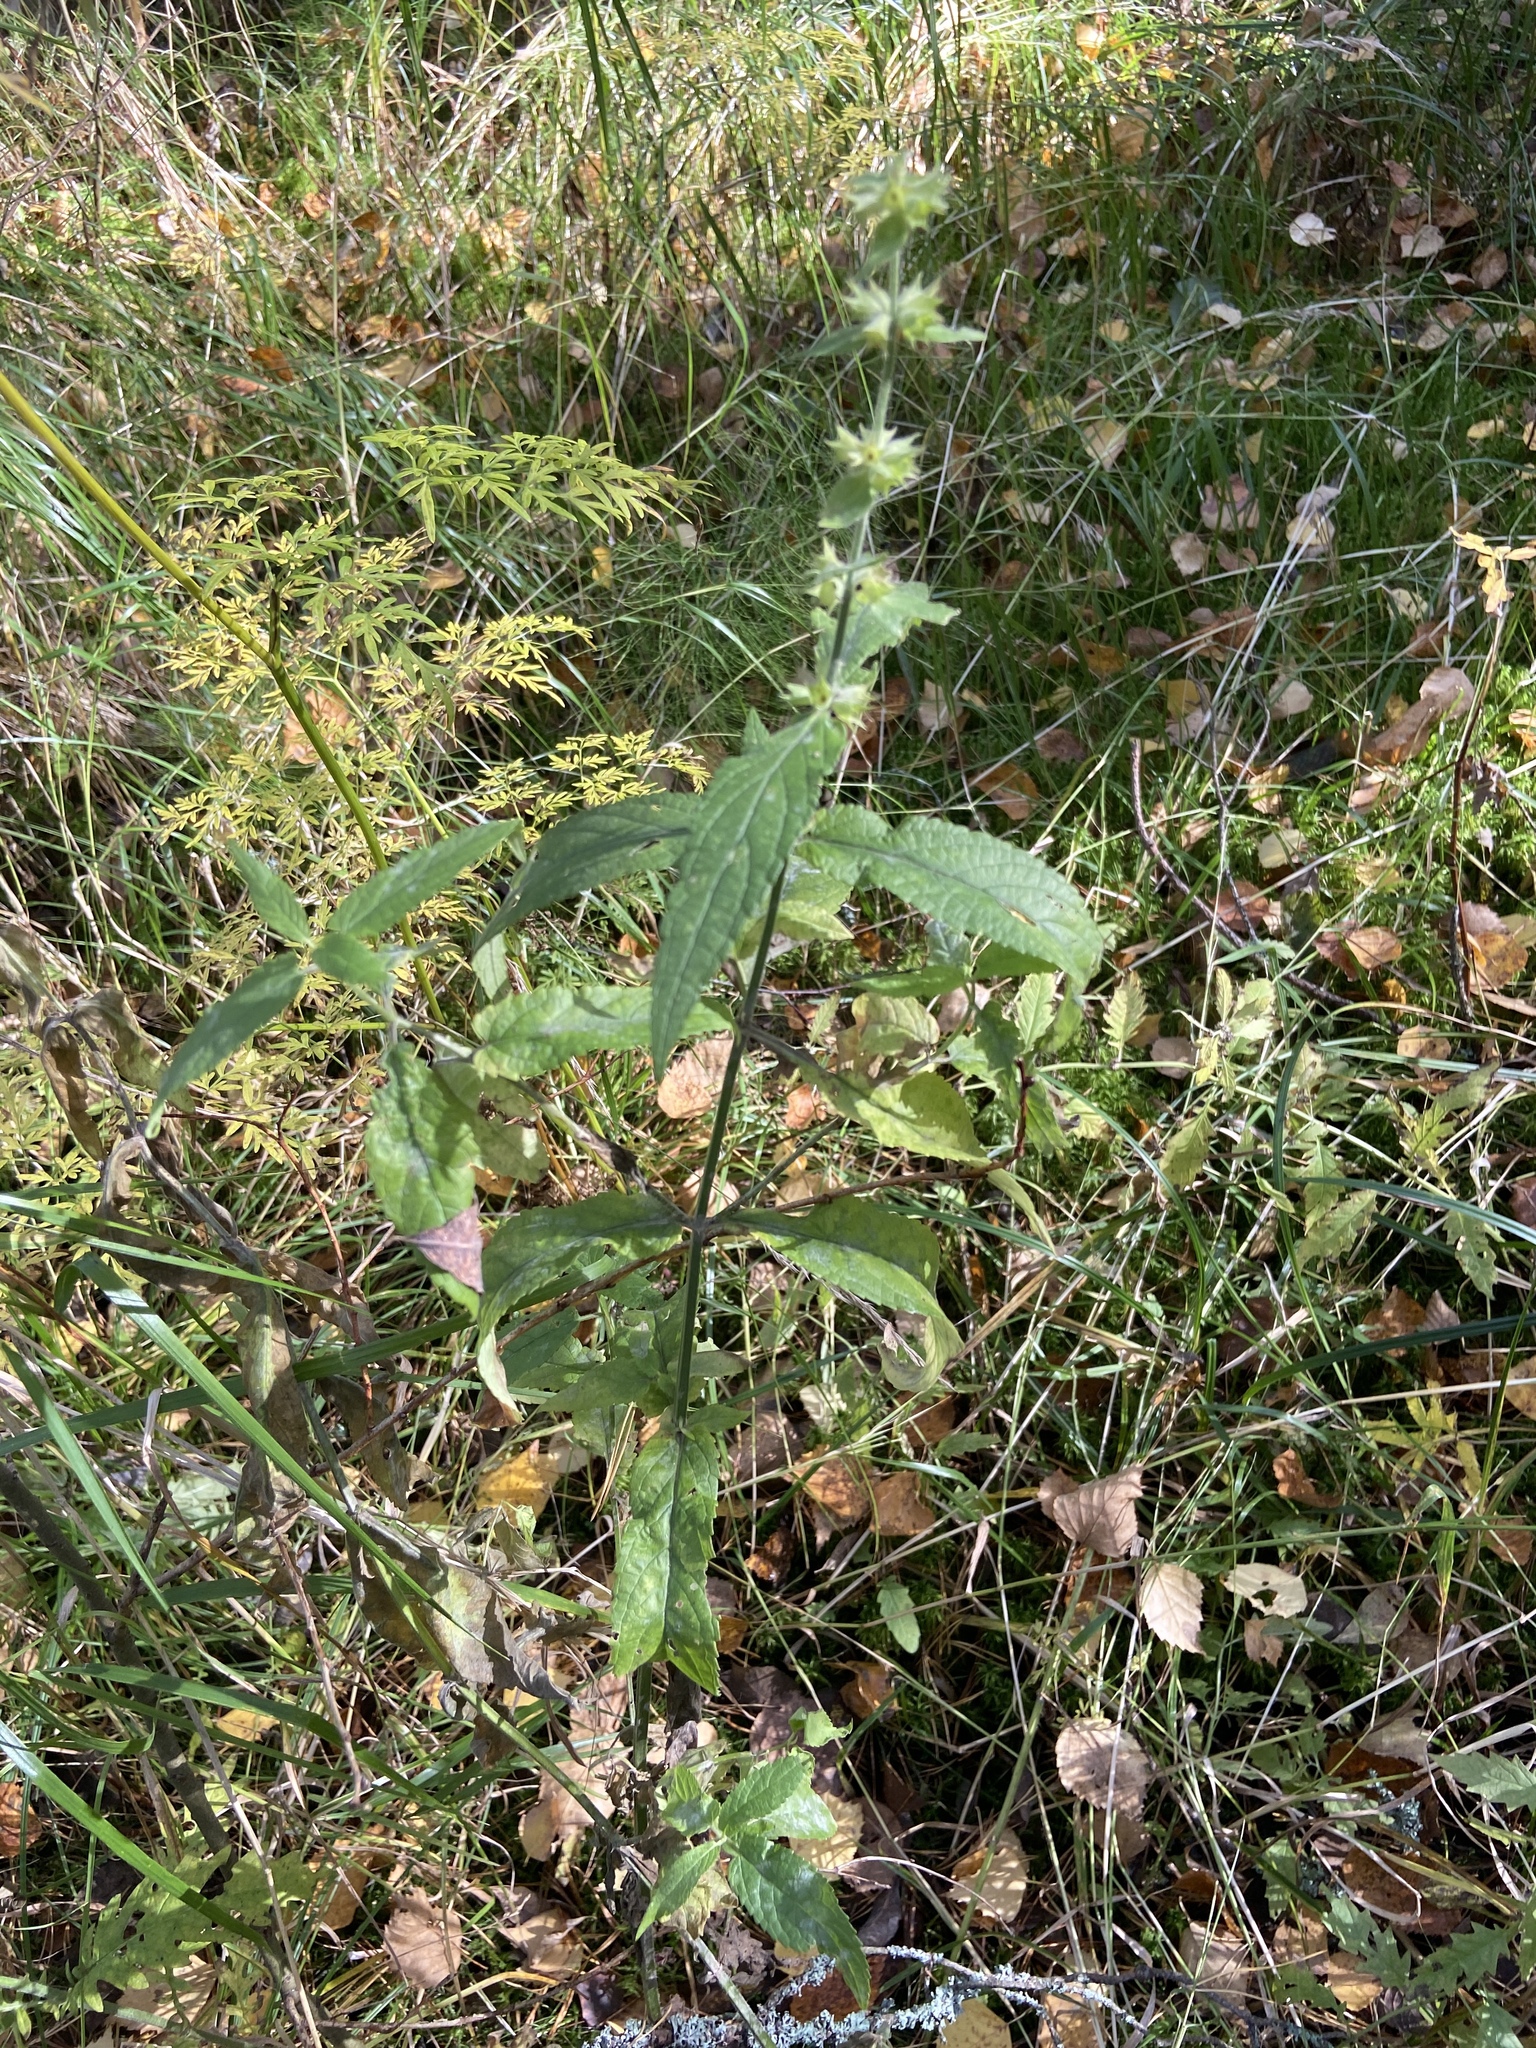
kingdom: Plantae
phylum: Tracheophyta
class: Magnoliopsida
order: Lamiales
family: Lamiaceae
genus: Stachys
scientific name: Stachys palustris
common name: Marsh woundwort
